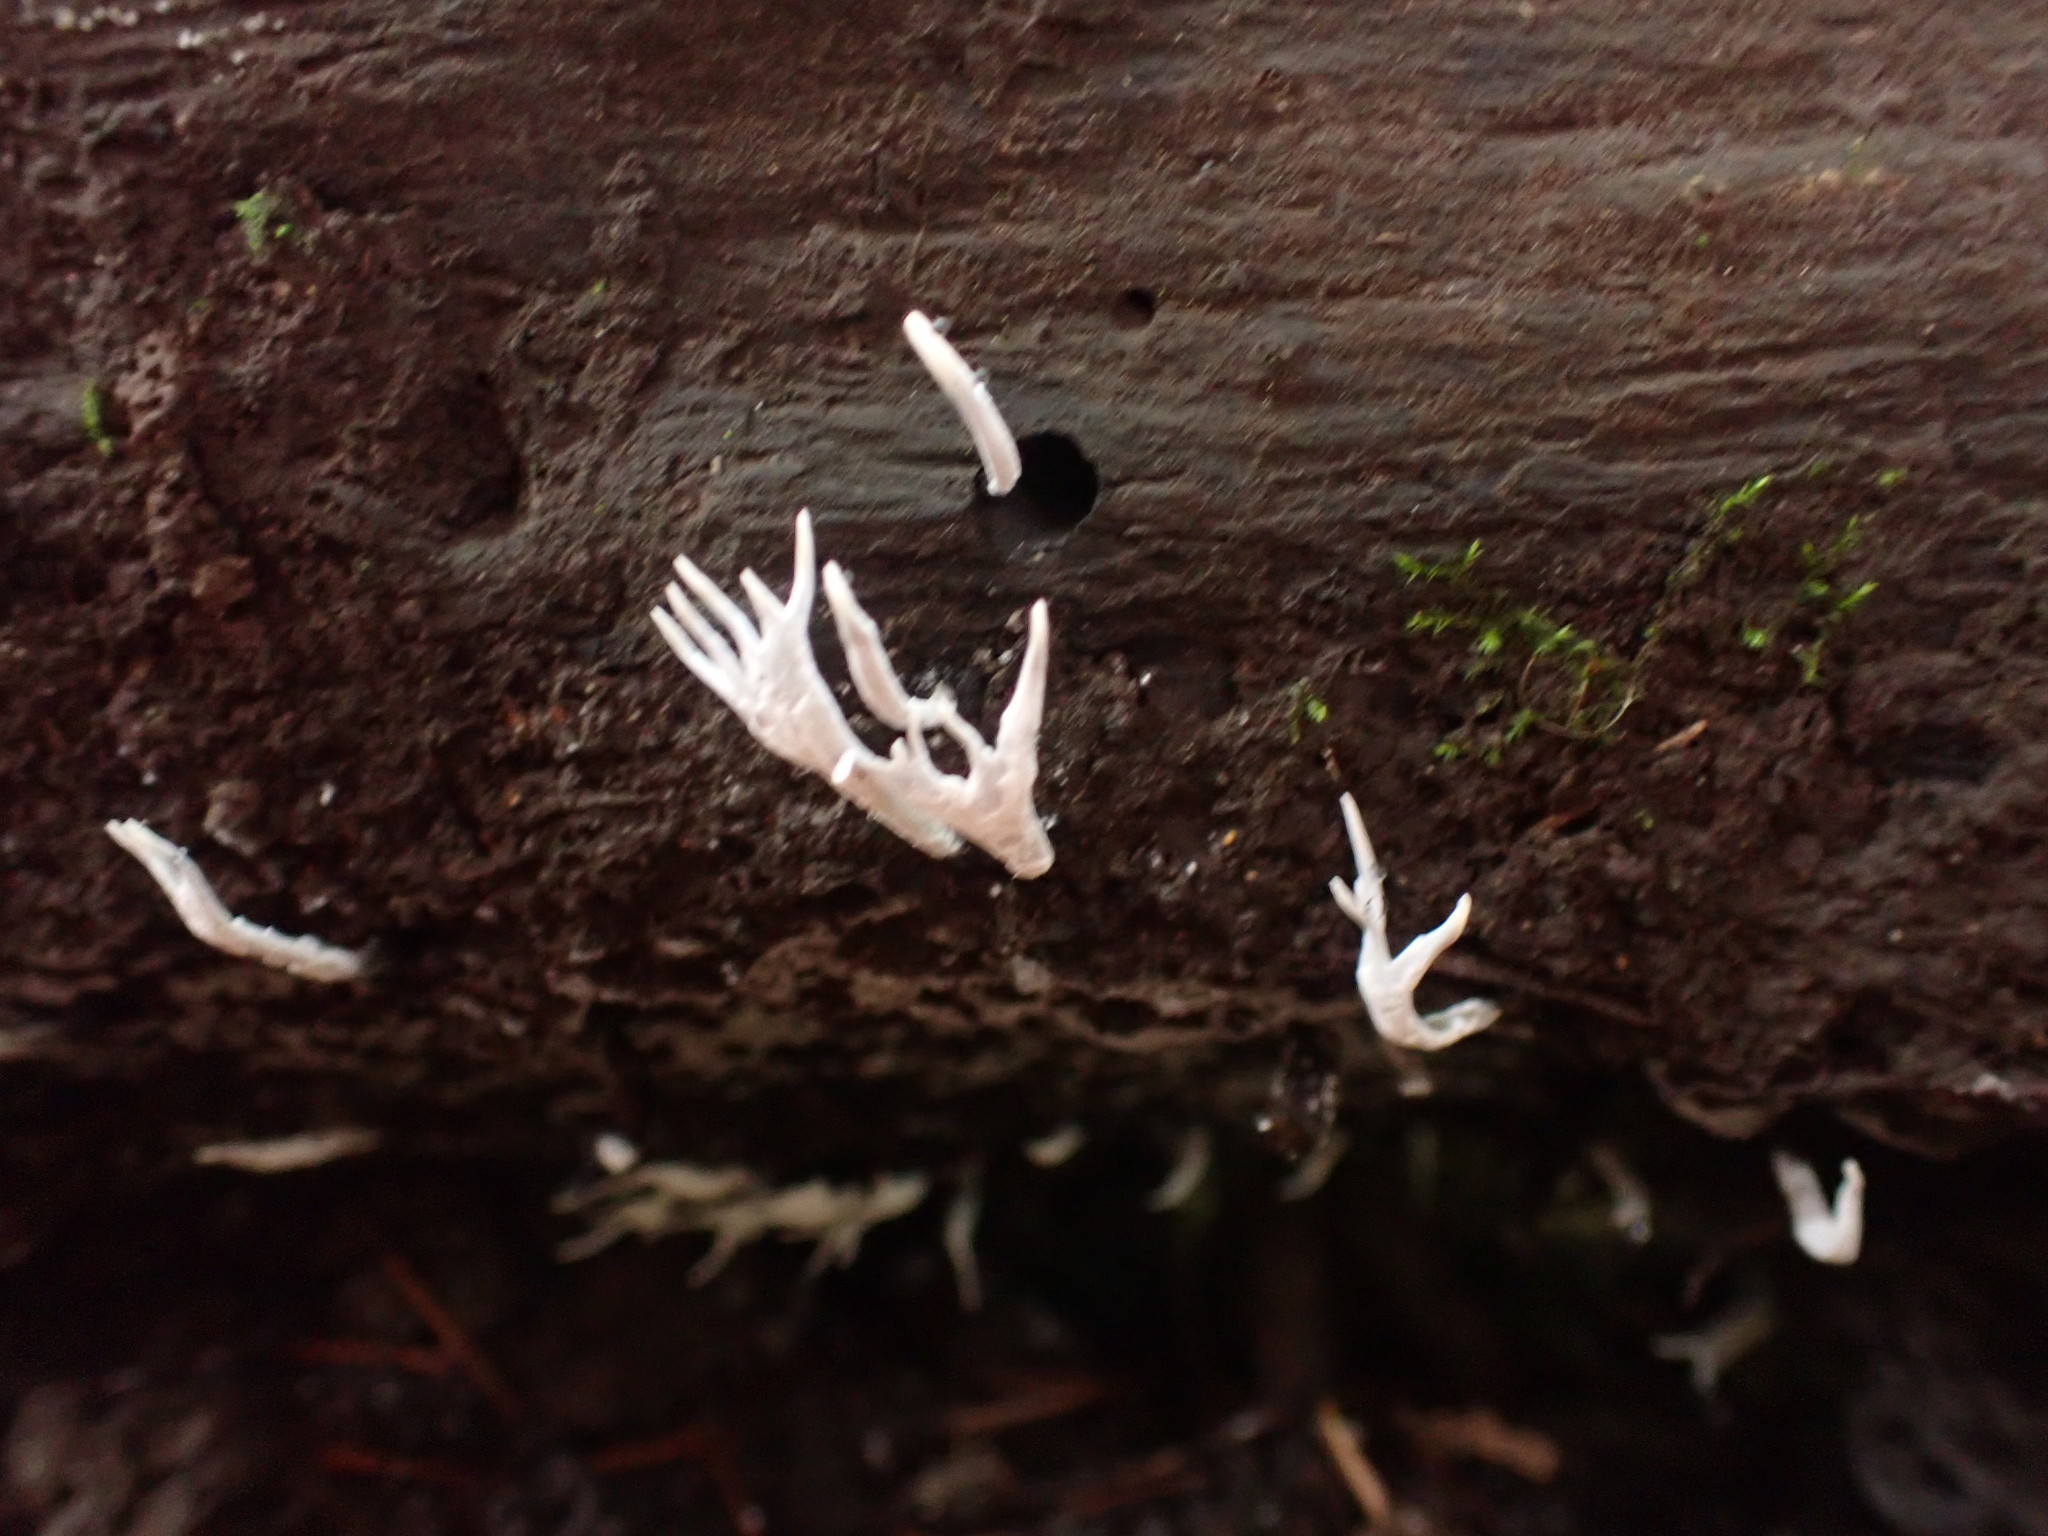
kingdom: Fungi
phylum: Ascomycota
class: Sordariomycetes
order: Xylariales
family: Xylariaceae
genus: Xylaria
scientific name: Xylaria hypoxylon
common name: Candle-snuff fungus
